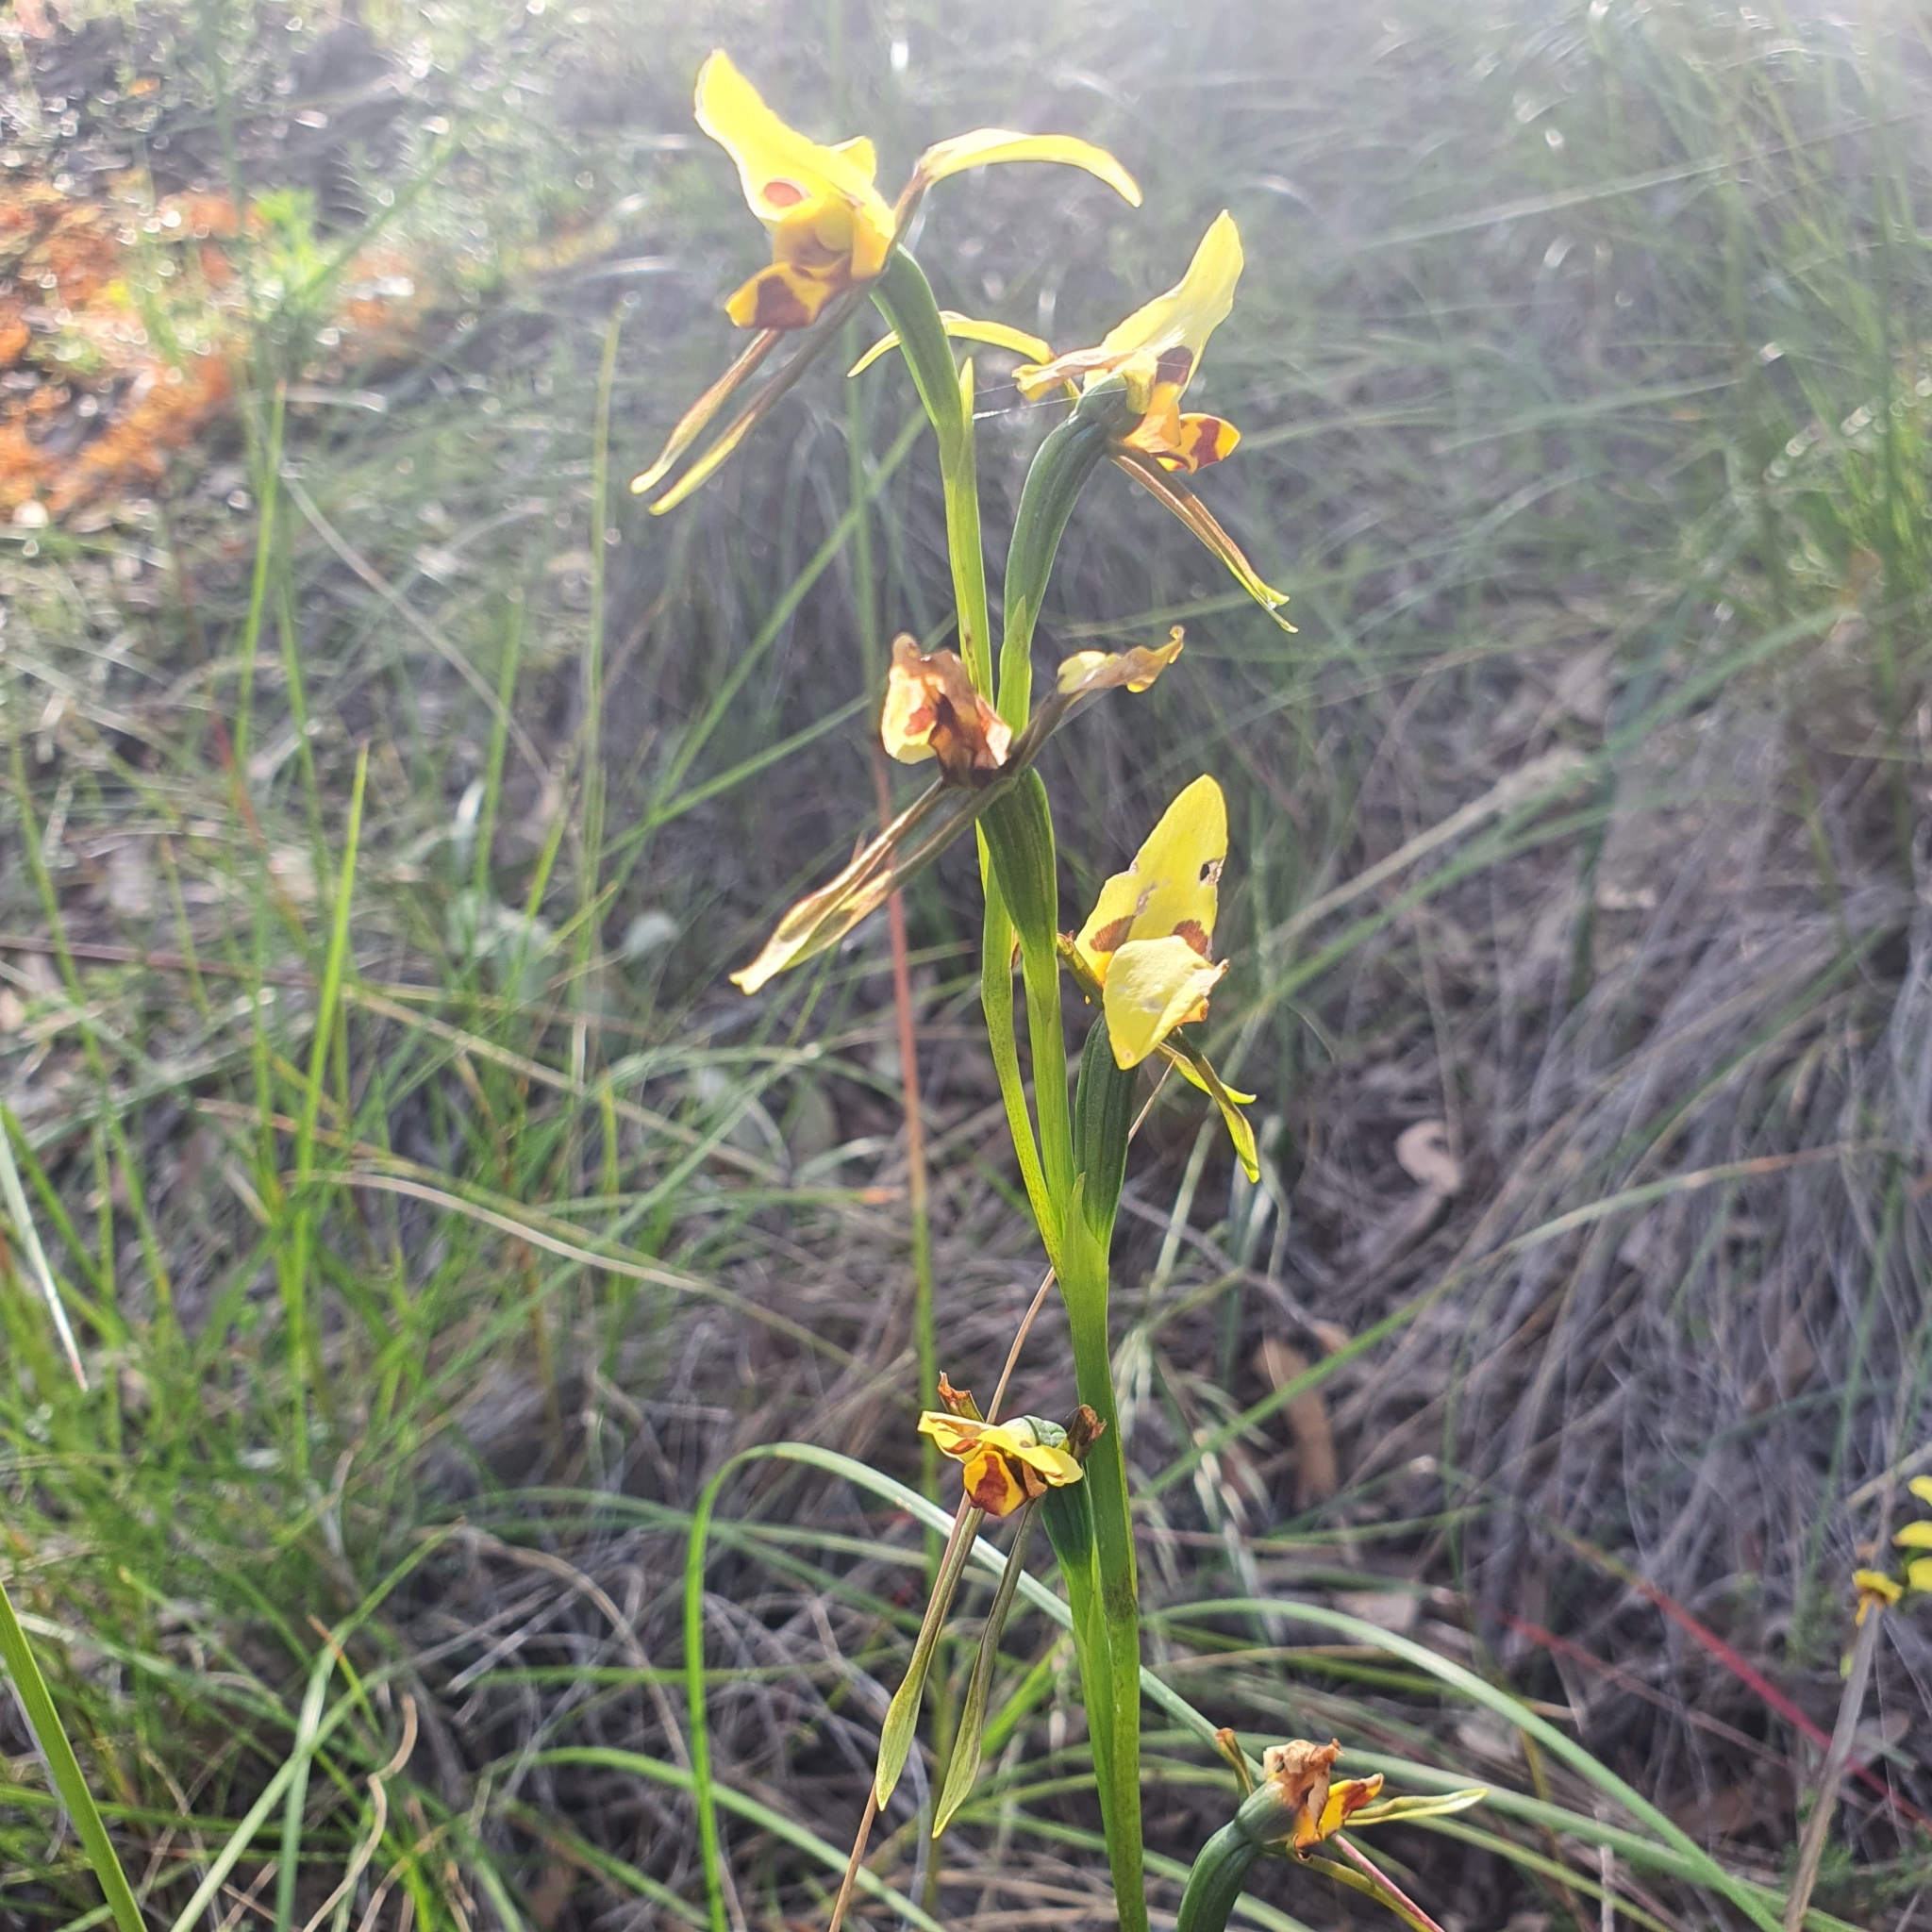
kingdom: Plantae
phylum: Tracheophyta
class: Liliopsida
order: Asparagales
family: Orchidaceae
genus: Diuris
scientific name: Diuris sulphurea
